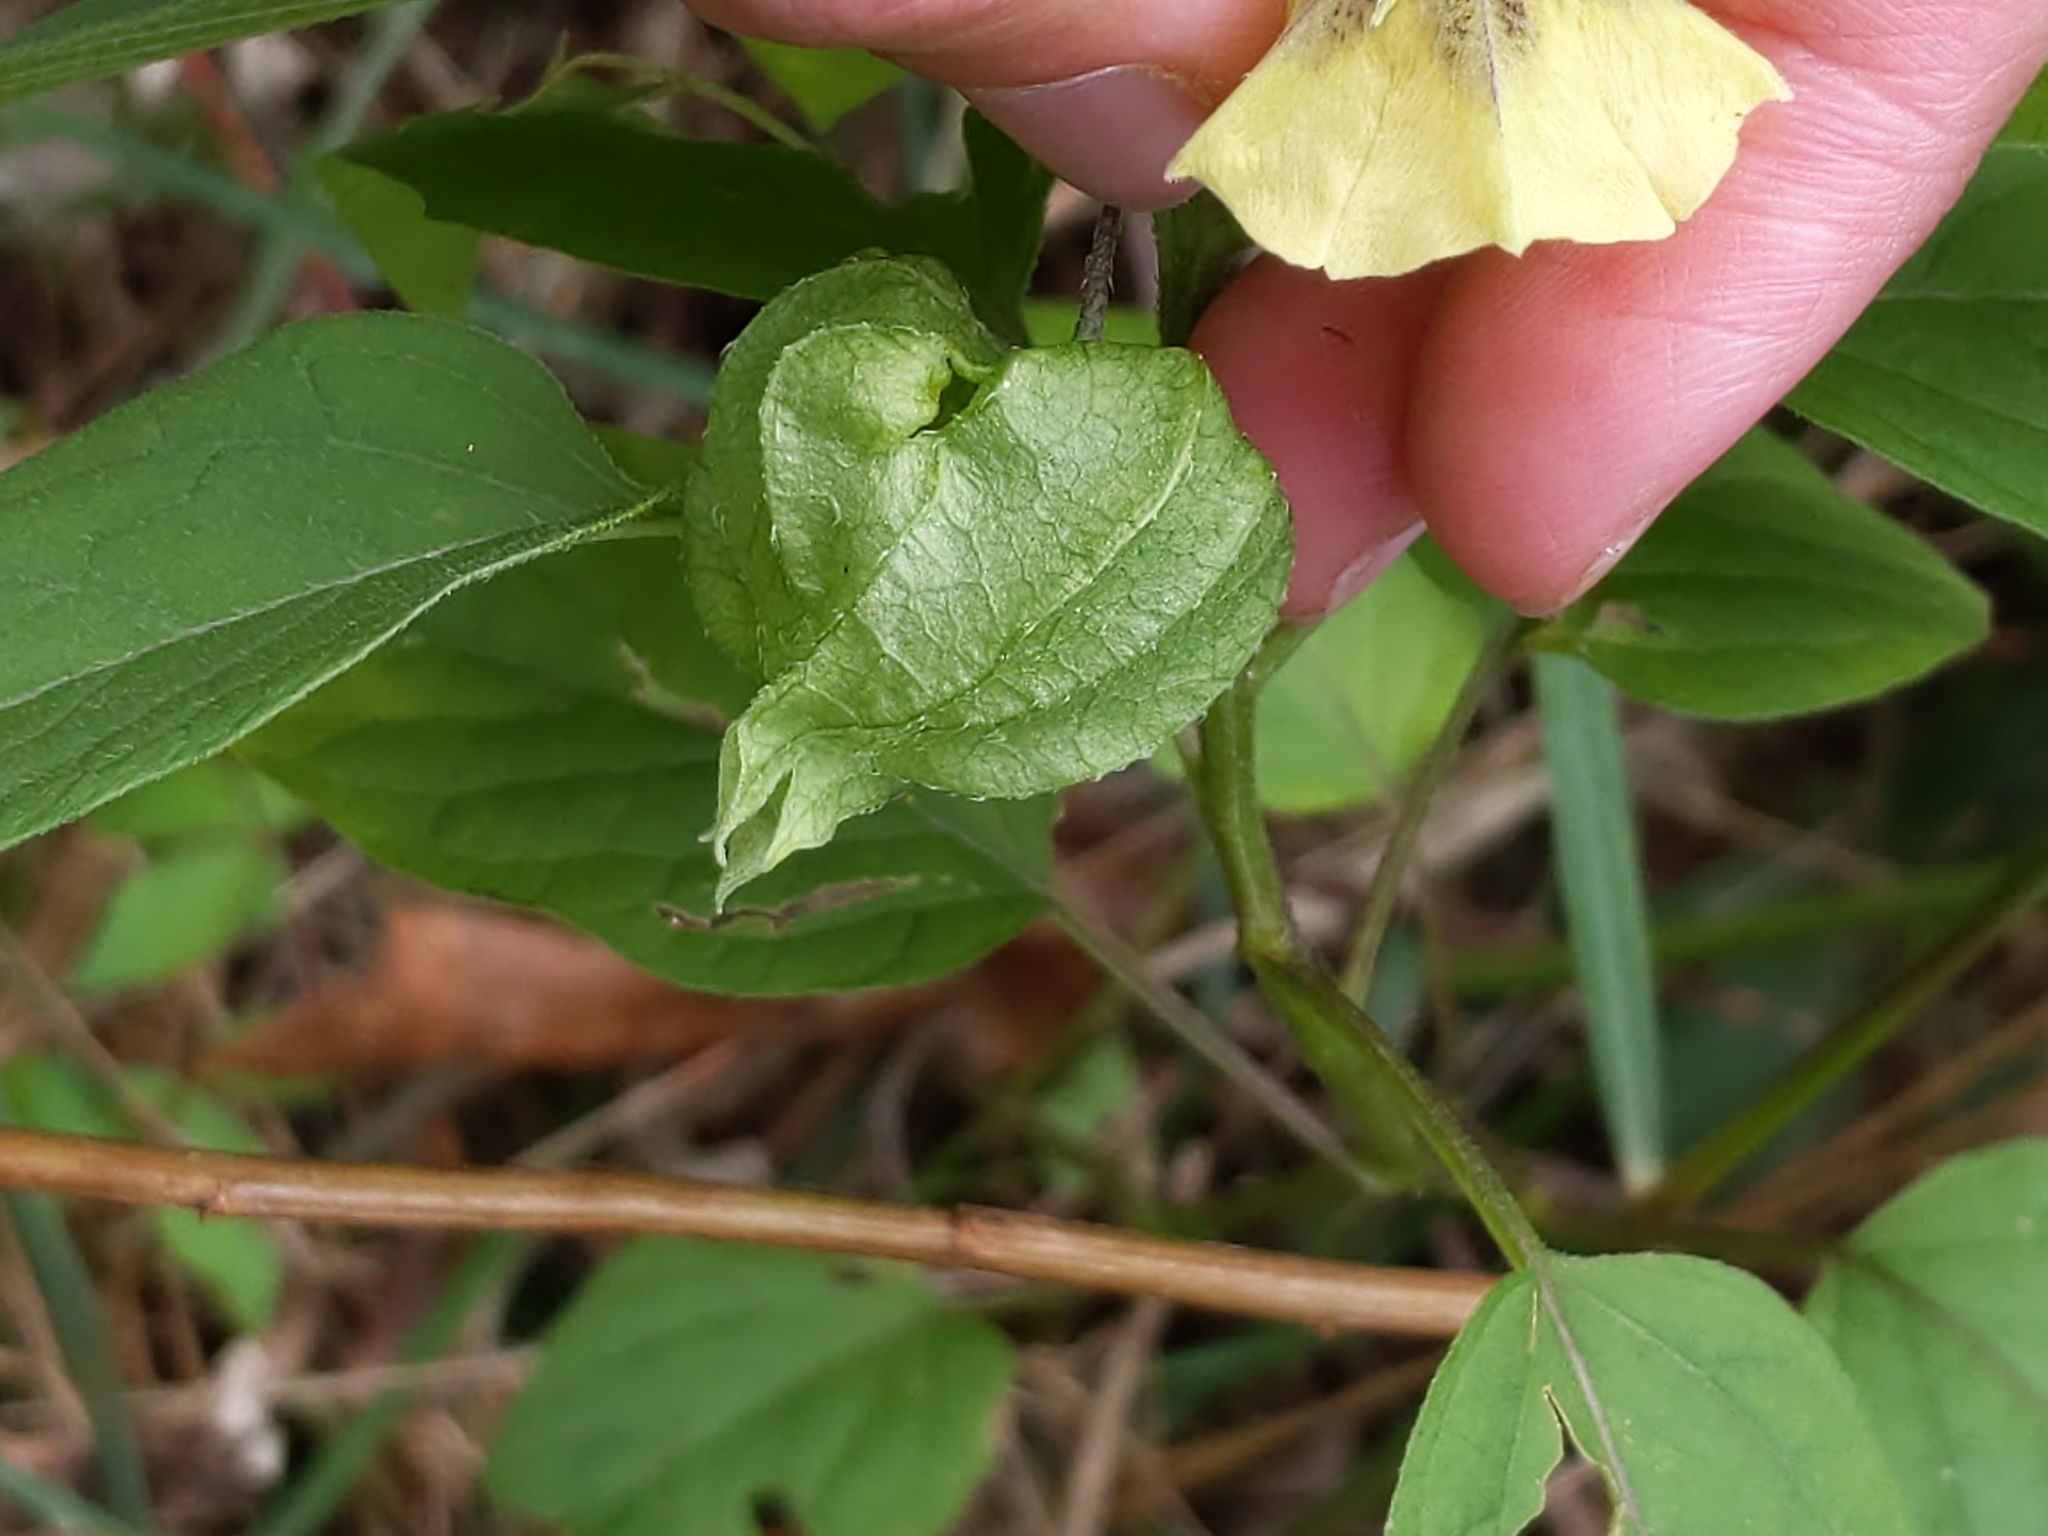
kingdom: Plantae
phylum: Tracheophyta
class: Magnoliopsida
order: Solanales
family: Solanaceae
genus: Physalis
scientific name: Physalis longifolia
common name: Common ground-cherry
